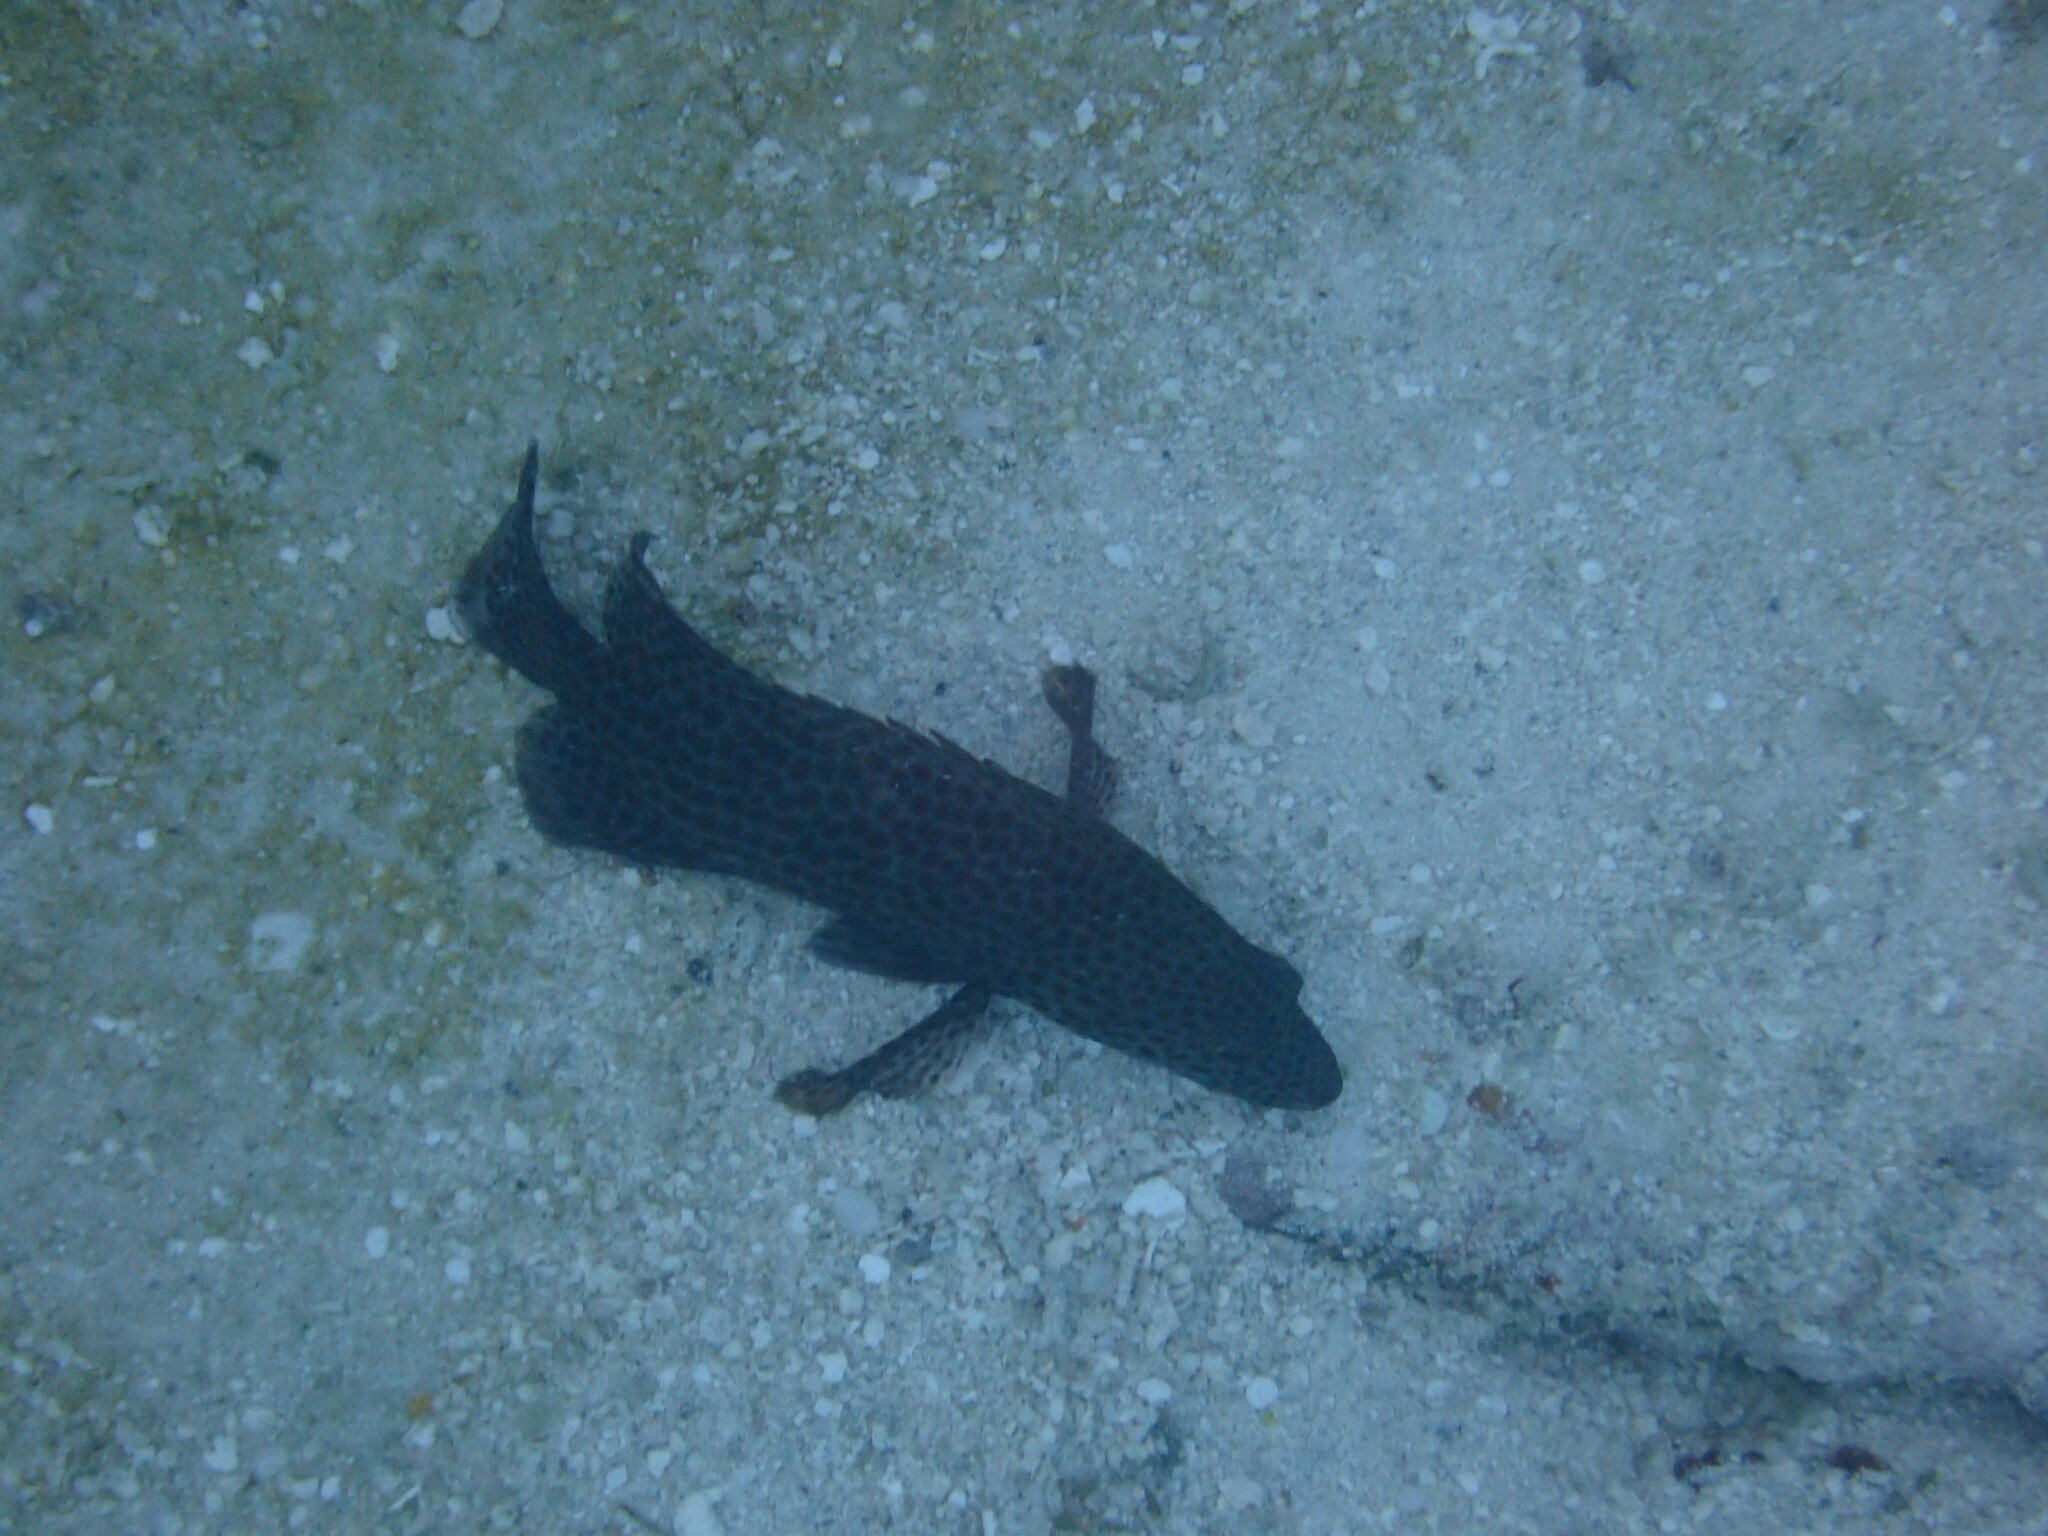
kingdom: Animalia
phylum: Chordata
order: Perciformes
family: Serranidae
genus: Cephalopholis
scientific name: Cephalopholis cruentata
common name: Graysby
